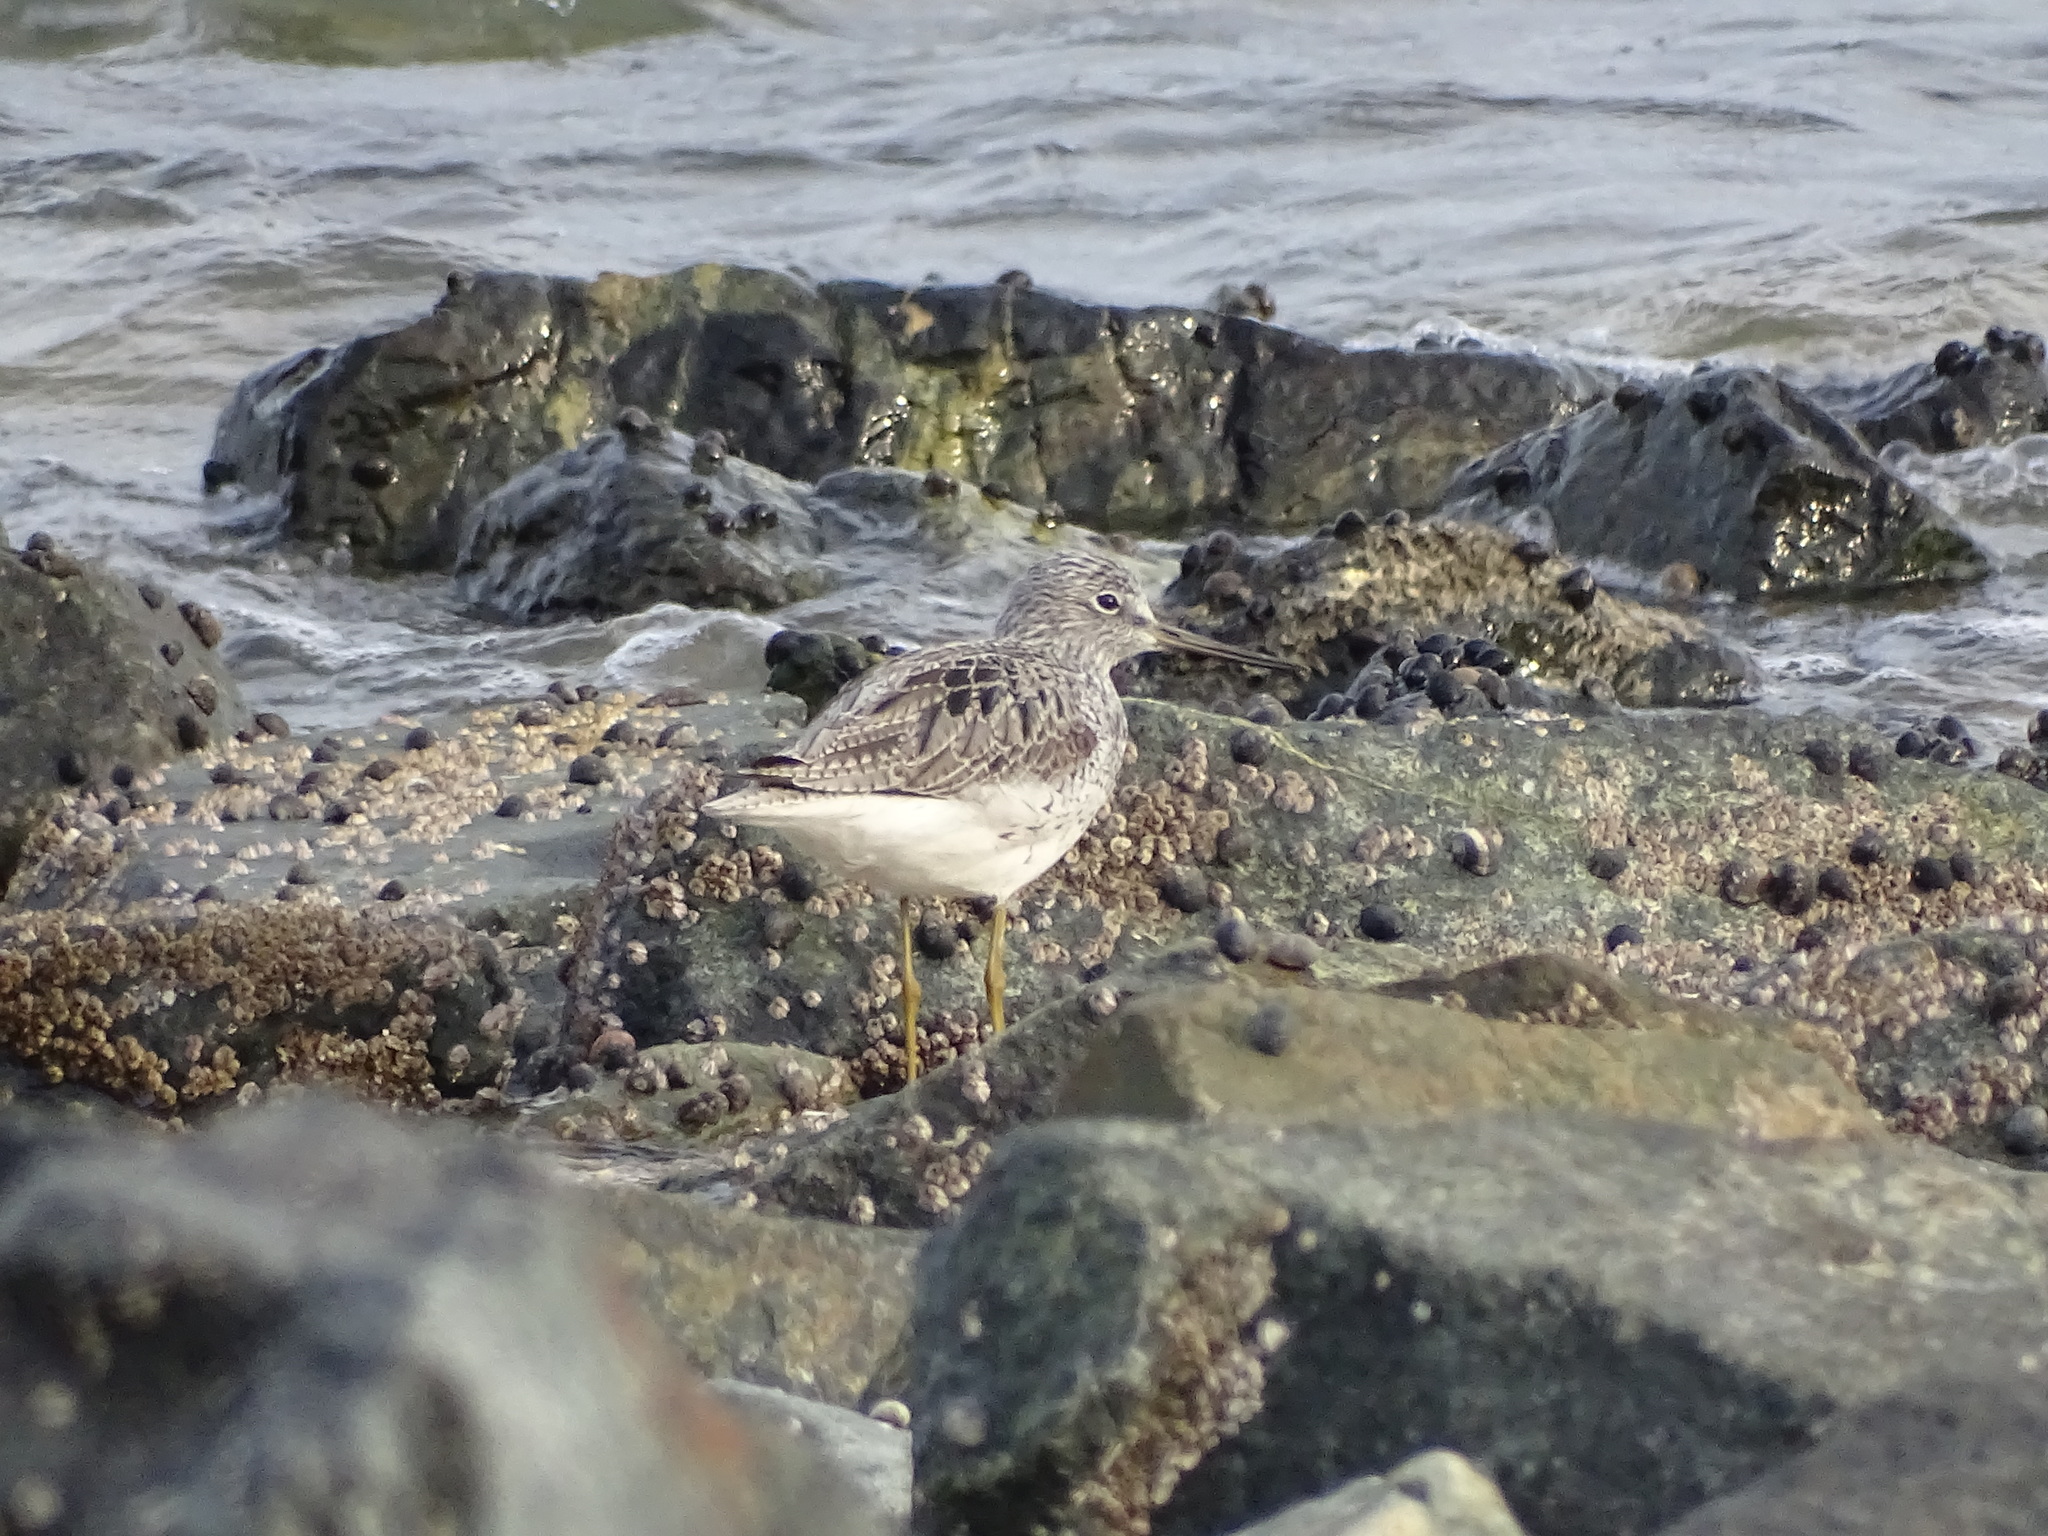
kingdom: Animalia
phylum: Chordata
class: Aves
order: Charadriiformes
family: Scolopacidae
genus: Tringa
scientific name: Tringa nebularia
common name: Common greenshank
